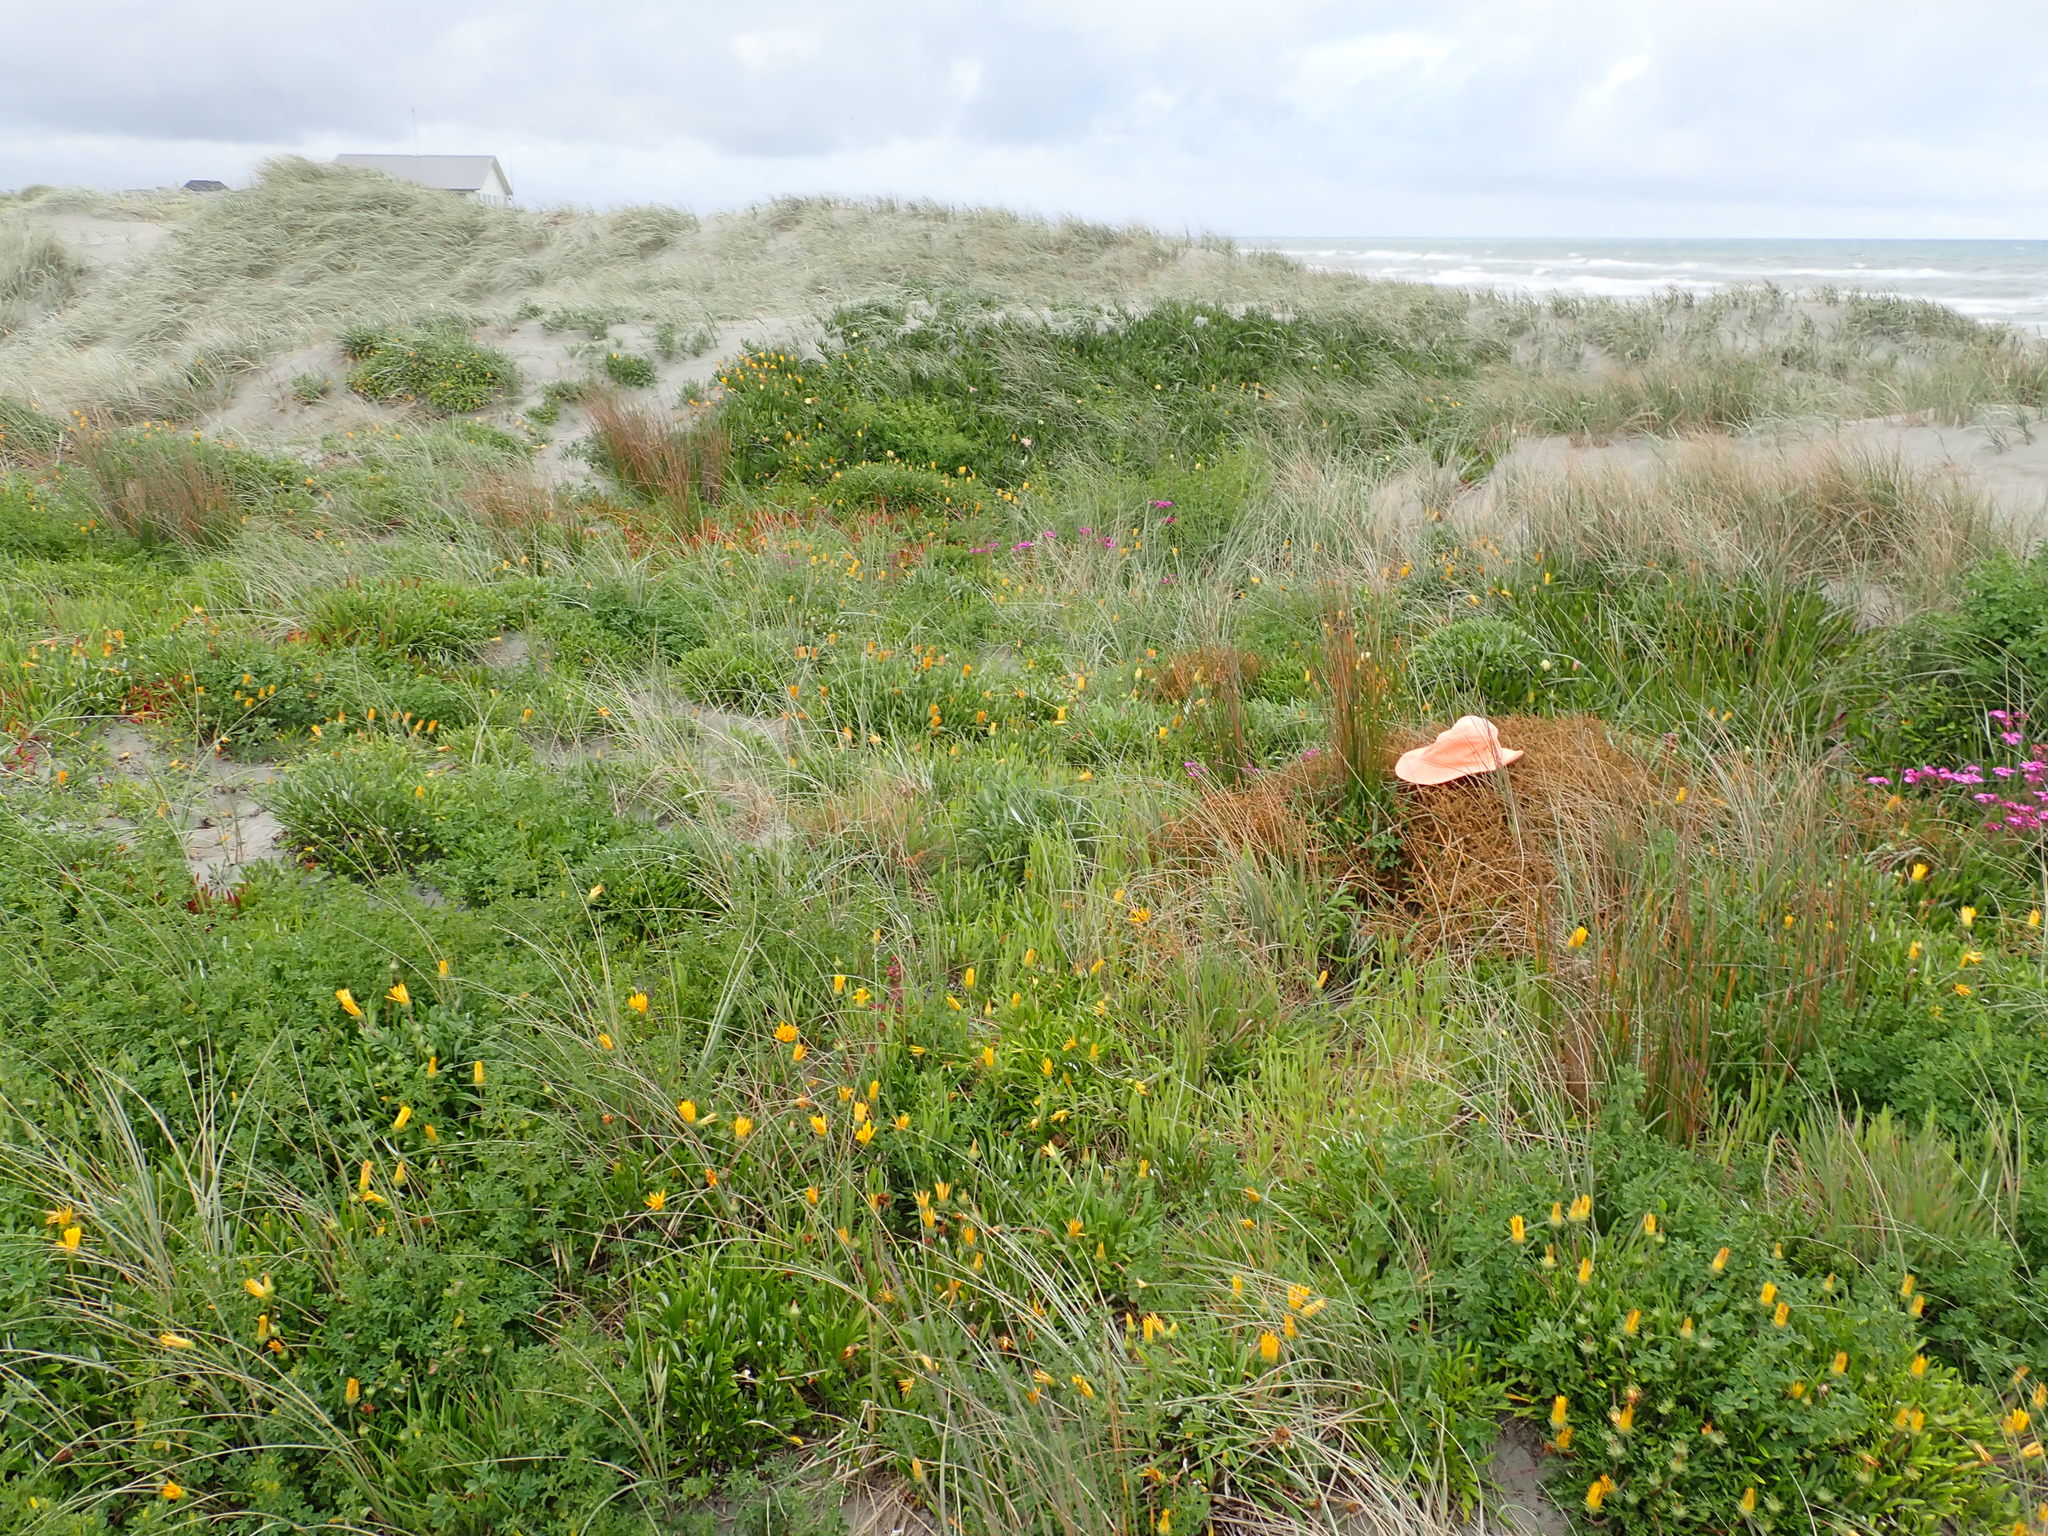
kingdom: Plantae
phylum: Tracheophyta
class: Magnoliopsida
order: Gentianales
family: Rubiaceae
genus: Coprosma
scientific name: Coprosma acerosa
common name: Sand coprosma
